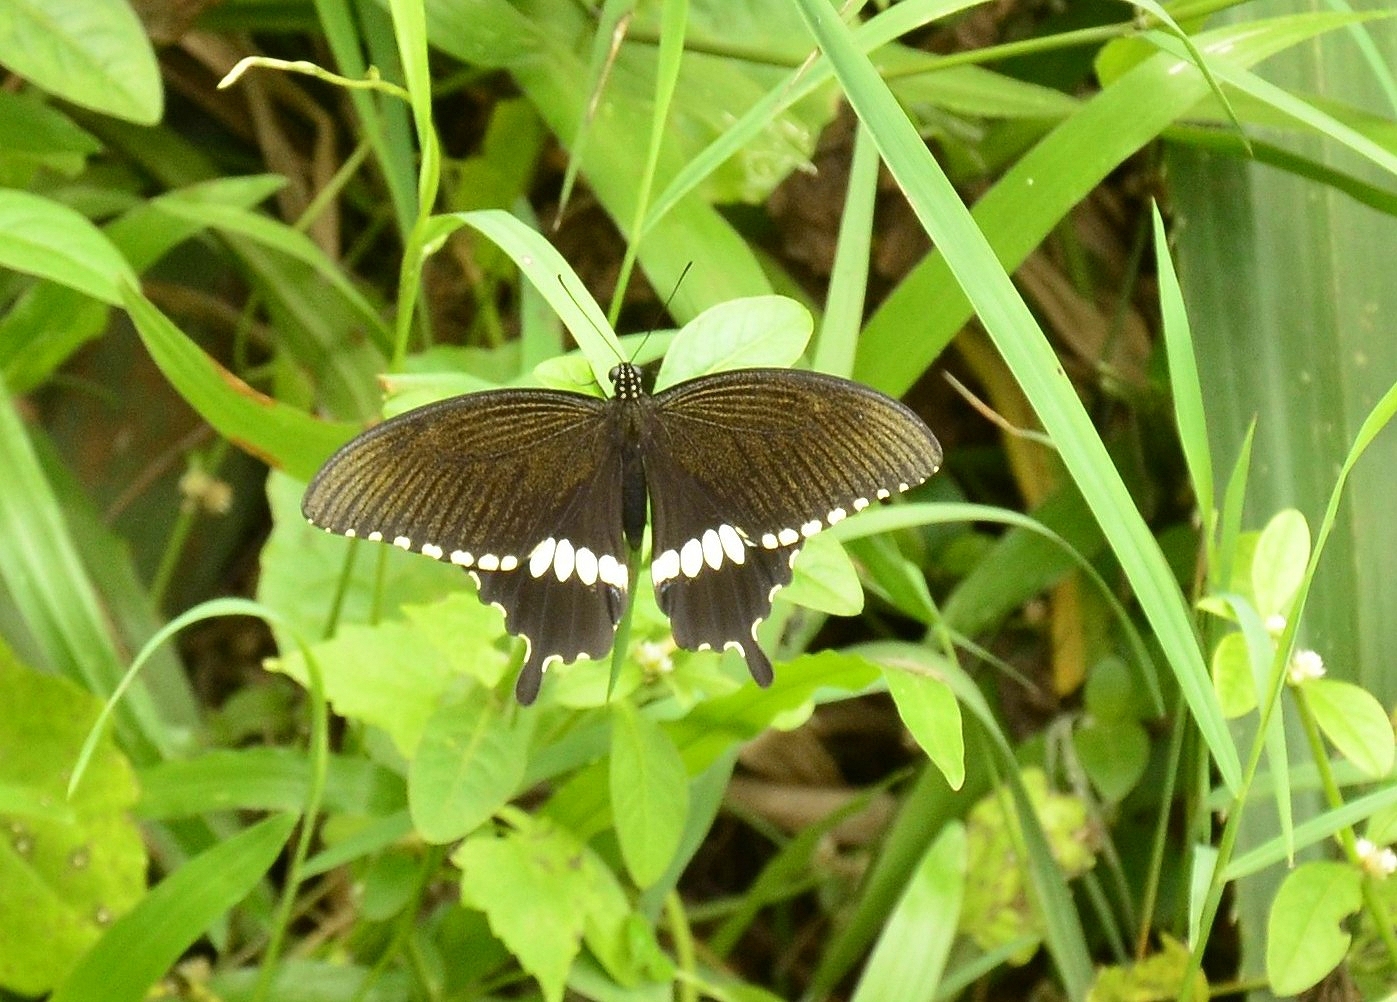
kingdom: Animalia
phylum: Arthropoda
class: Insecta
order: Lepidoptera
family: Papilionidae
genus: Papilio
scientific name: Papilio polytes
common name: Common mormon
